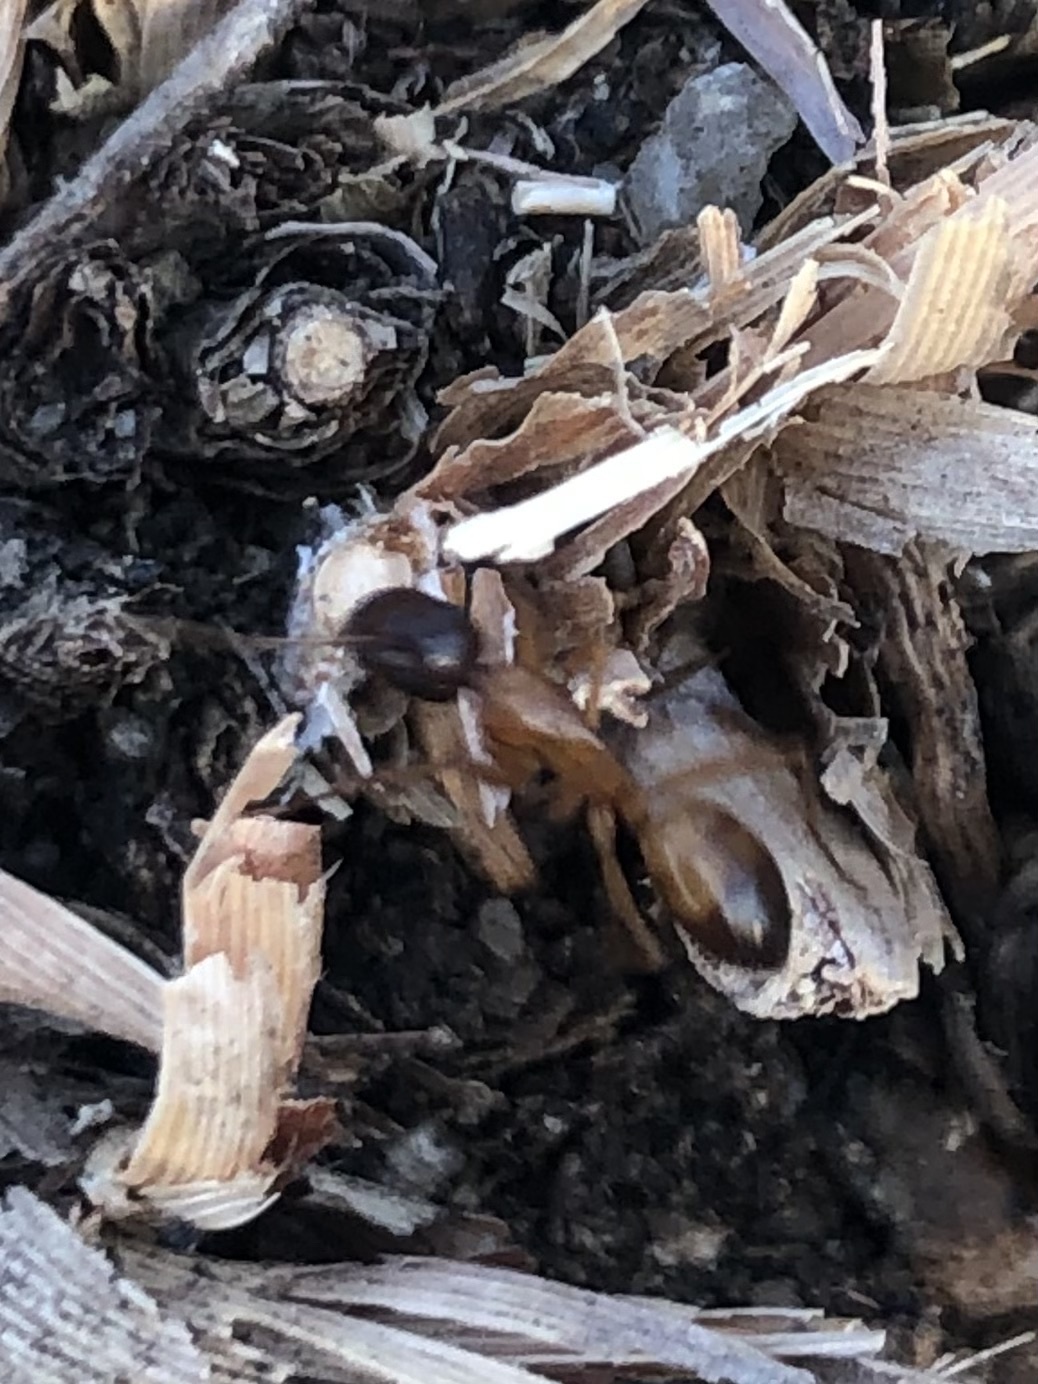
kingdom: Animalia
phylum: Arthropoda
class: Insecta
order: Hymenoptera
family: Formicidae
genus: Camponotus
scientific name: Camponotus sansabeanus
